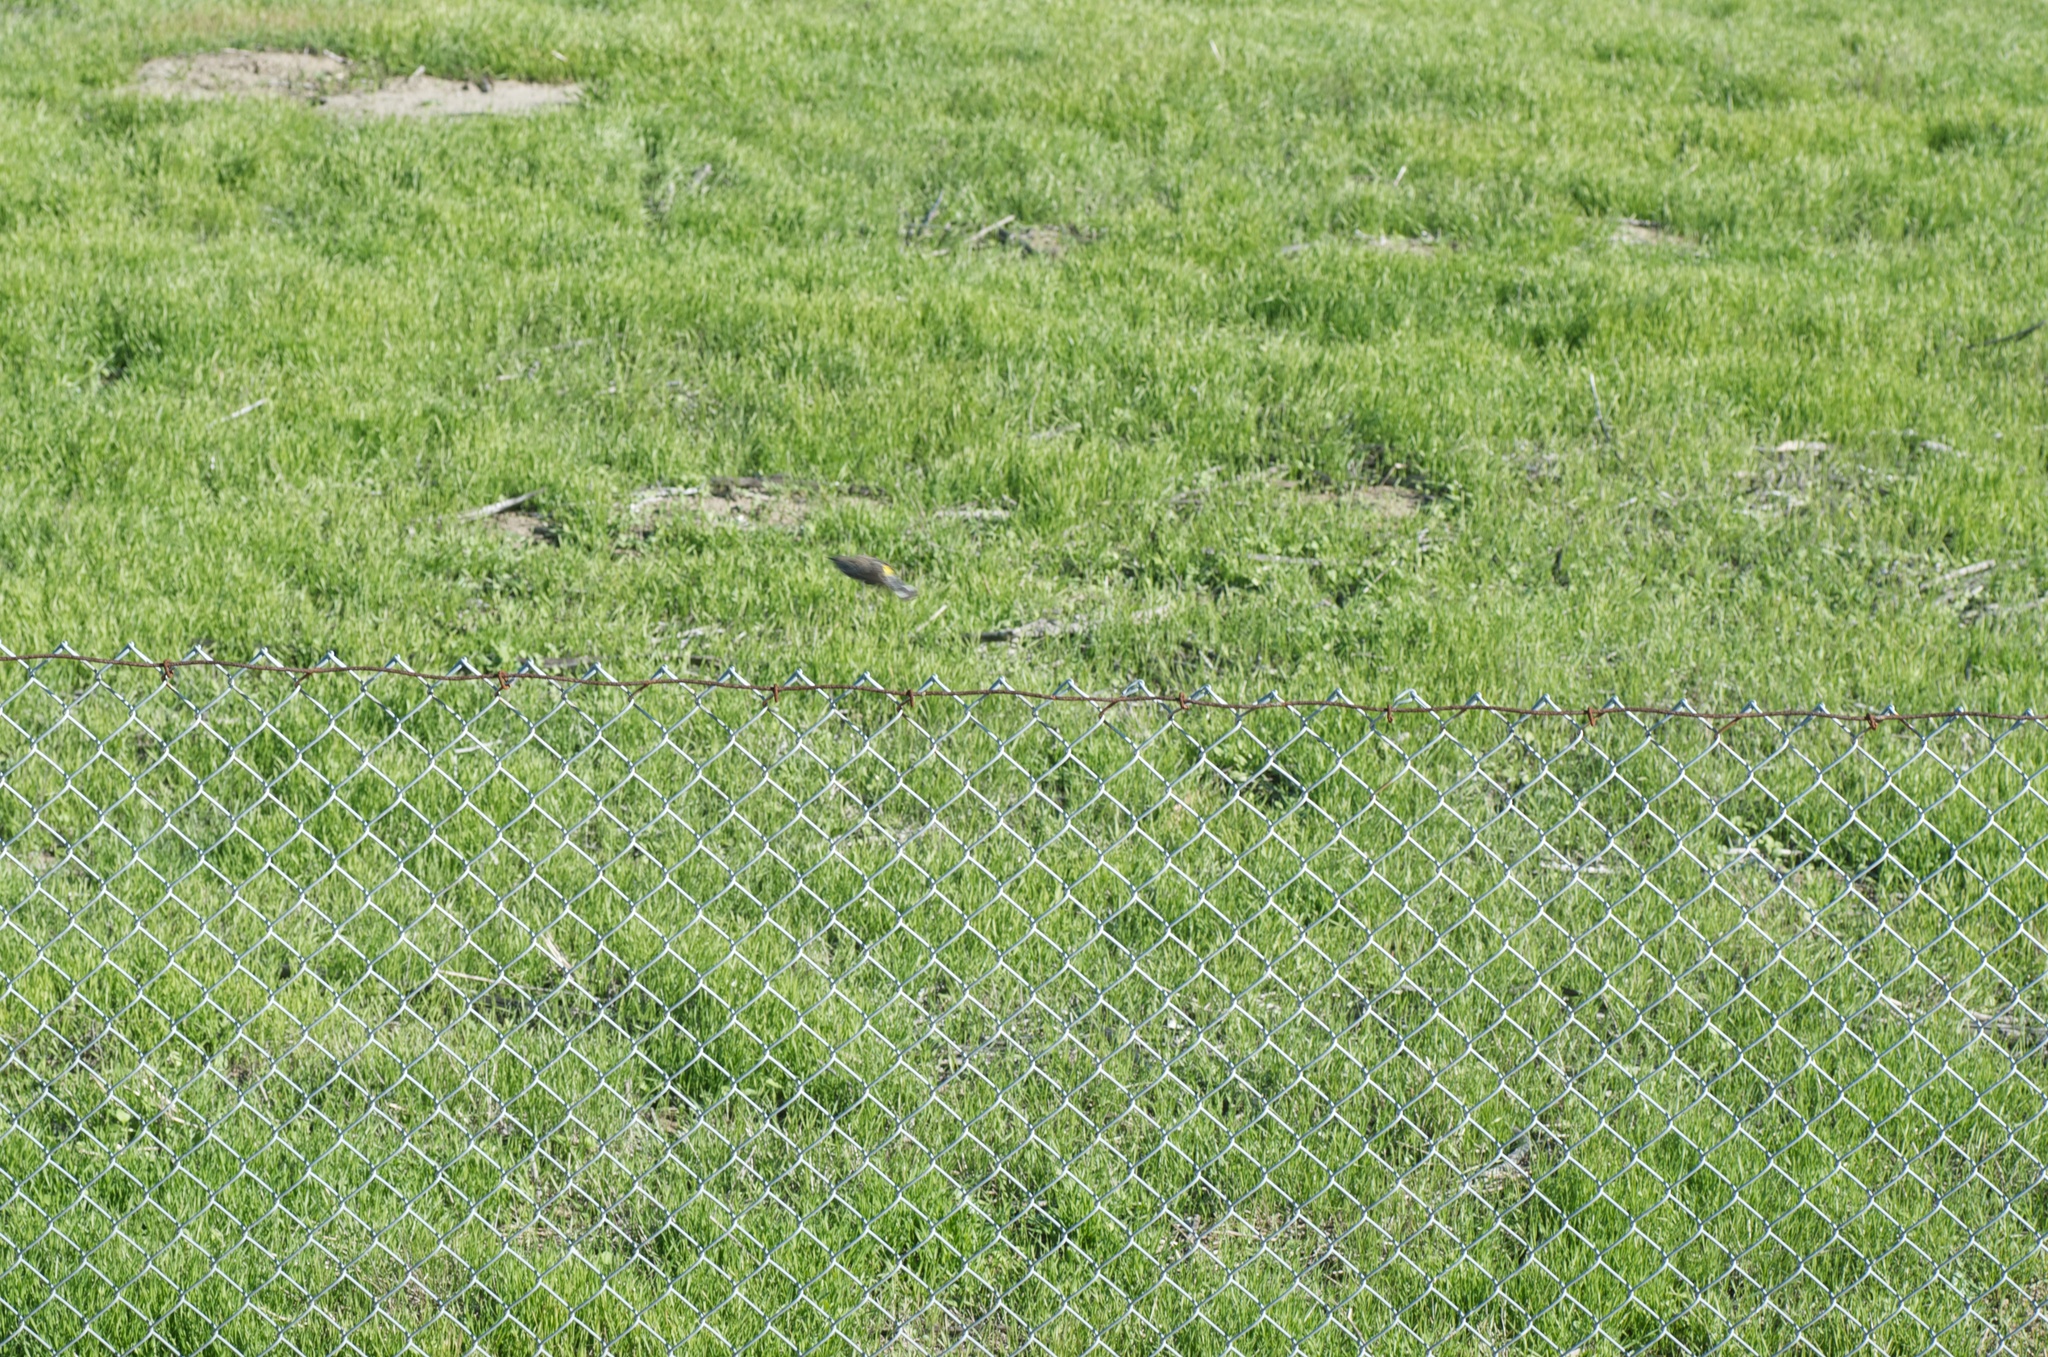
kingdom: Animalia
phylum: Chordata
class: Aves
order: Passeriformes
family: Parulidae
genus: Setophaga
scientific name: Setophaga coronata
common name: Myrtle warbler
